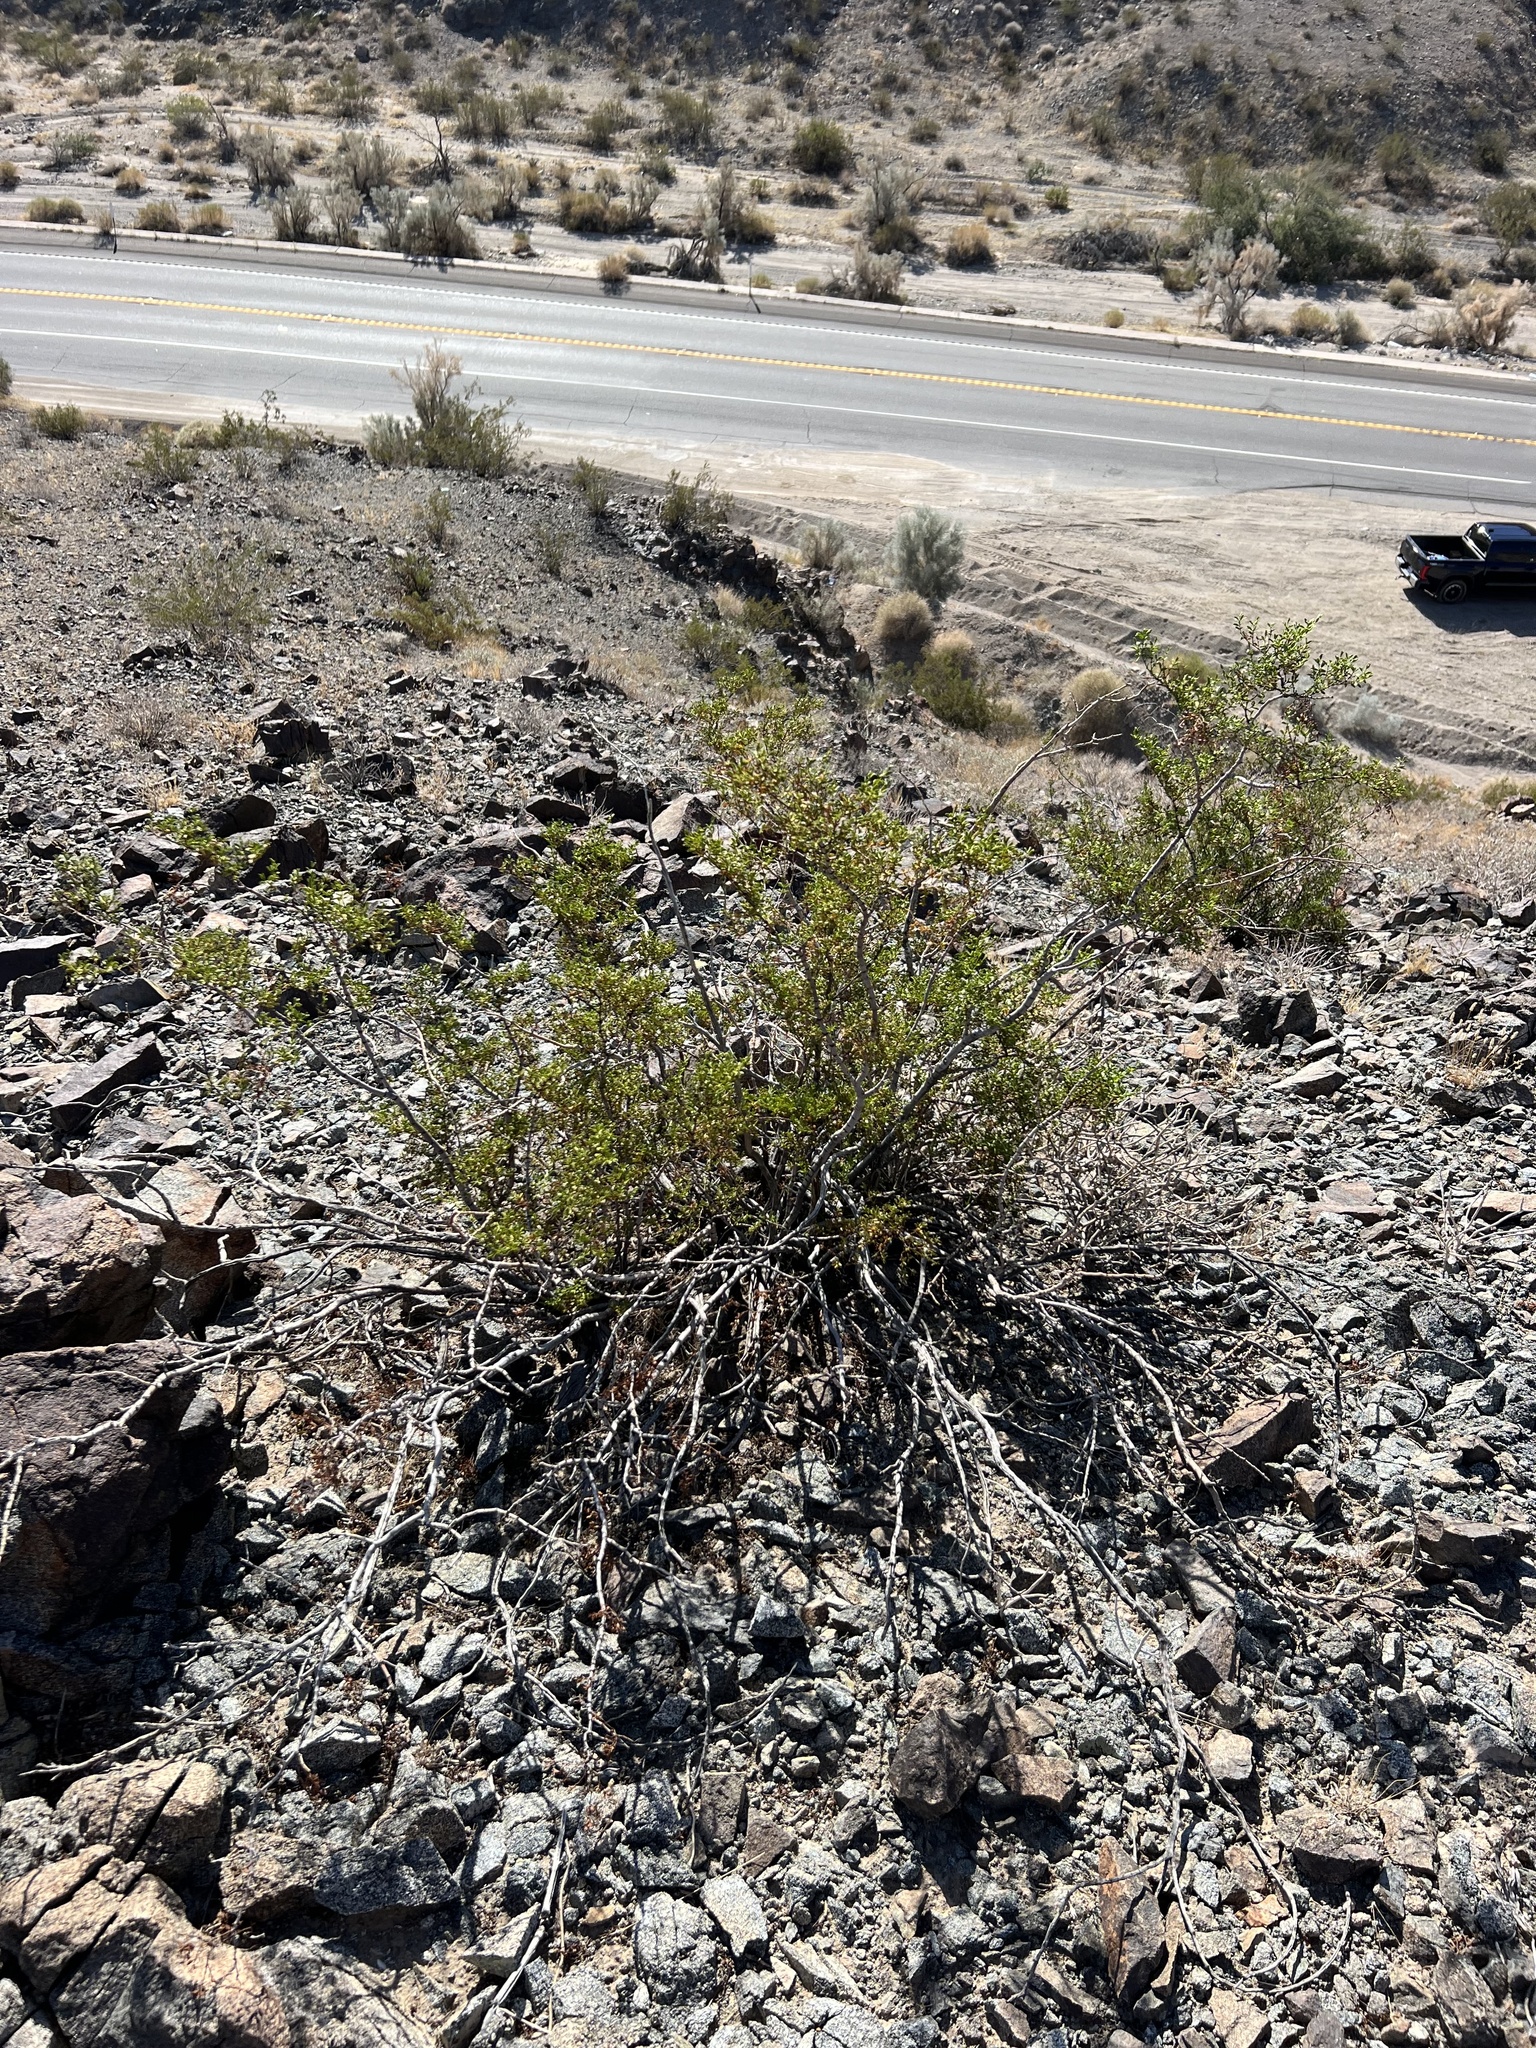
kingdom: Plantae
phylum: Tracheophyta
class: Magnoliopsida
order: Zygophyllales
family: Zygophyllaceae
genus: Larrea
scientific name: Larrea tridentata
